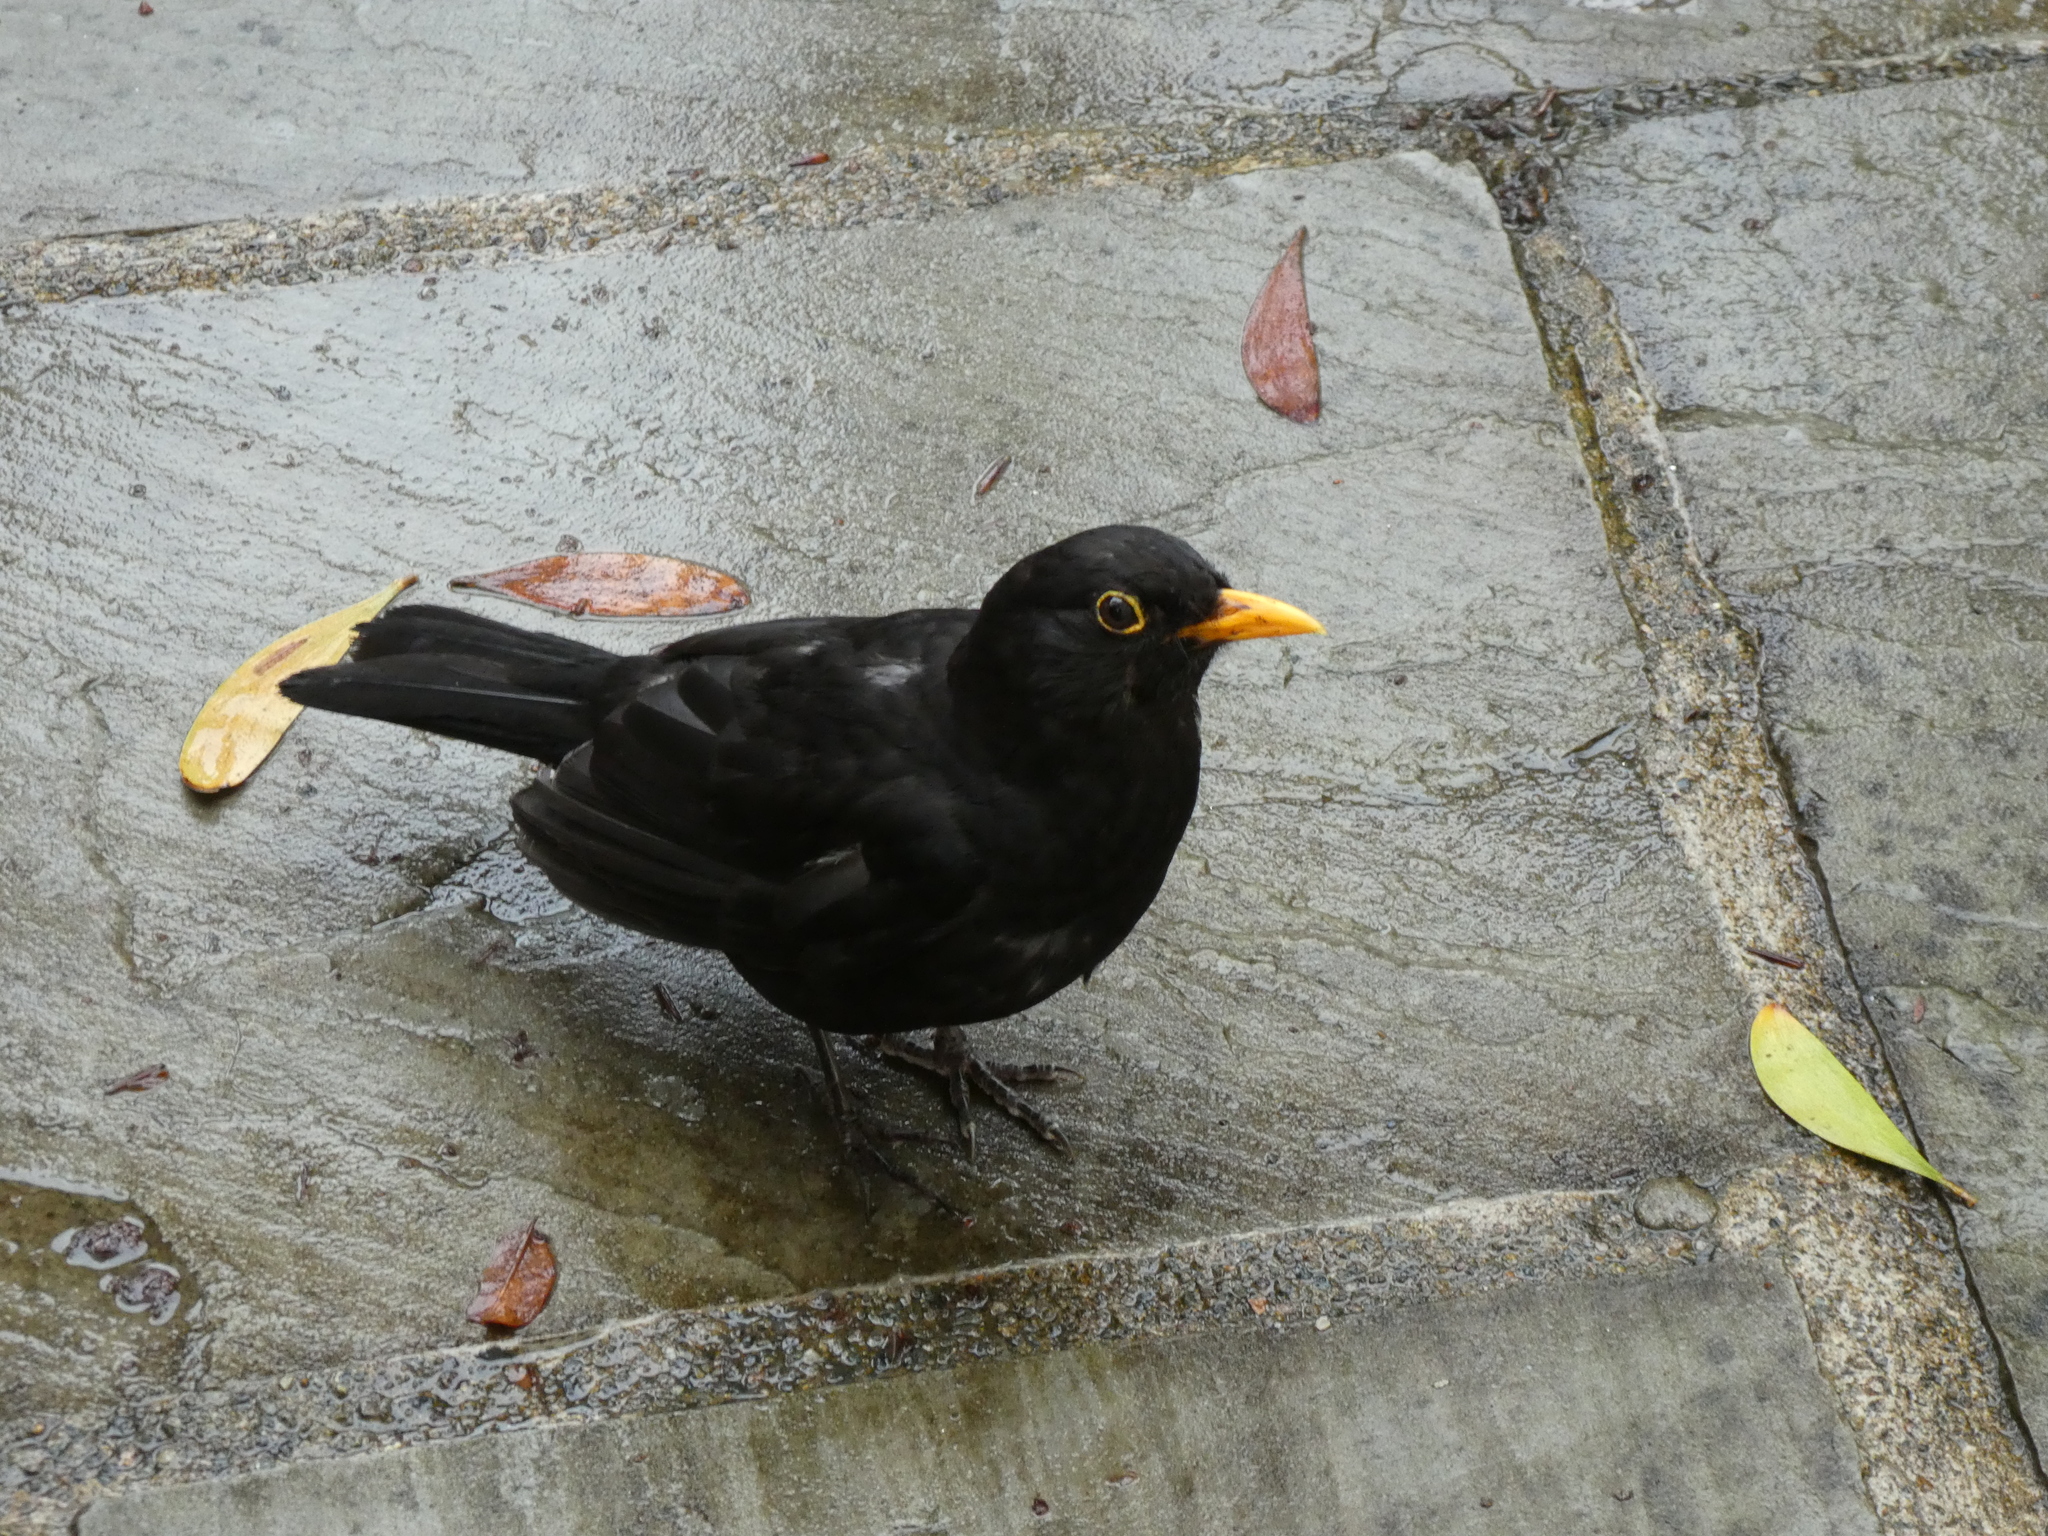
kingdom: Animalia
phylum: Chordata
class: Aves
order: Passeriformes
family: Turdidae
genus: Turdus
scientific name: Turdus merula
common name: Common blackbird
